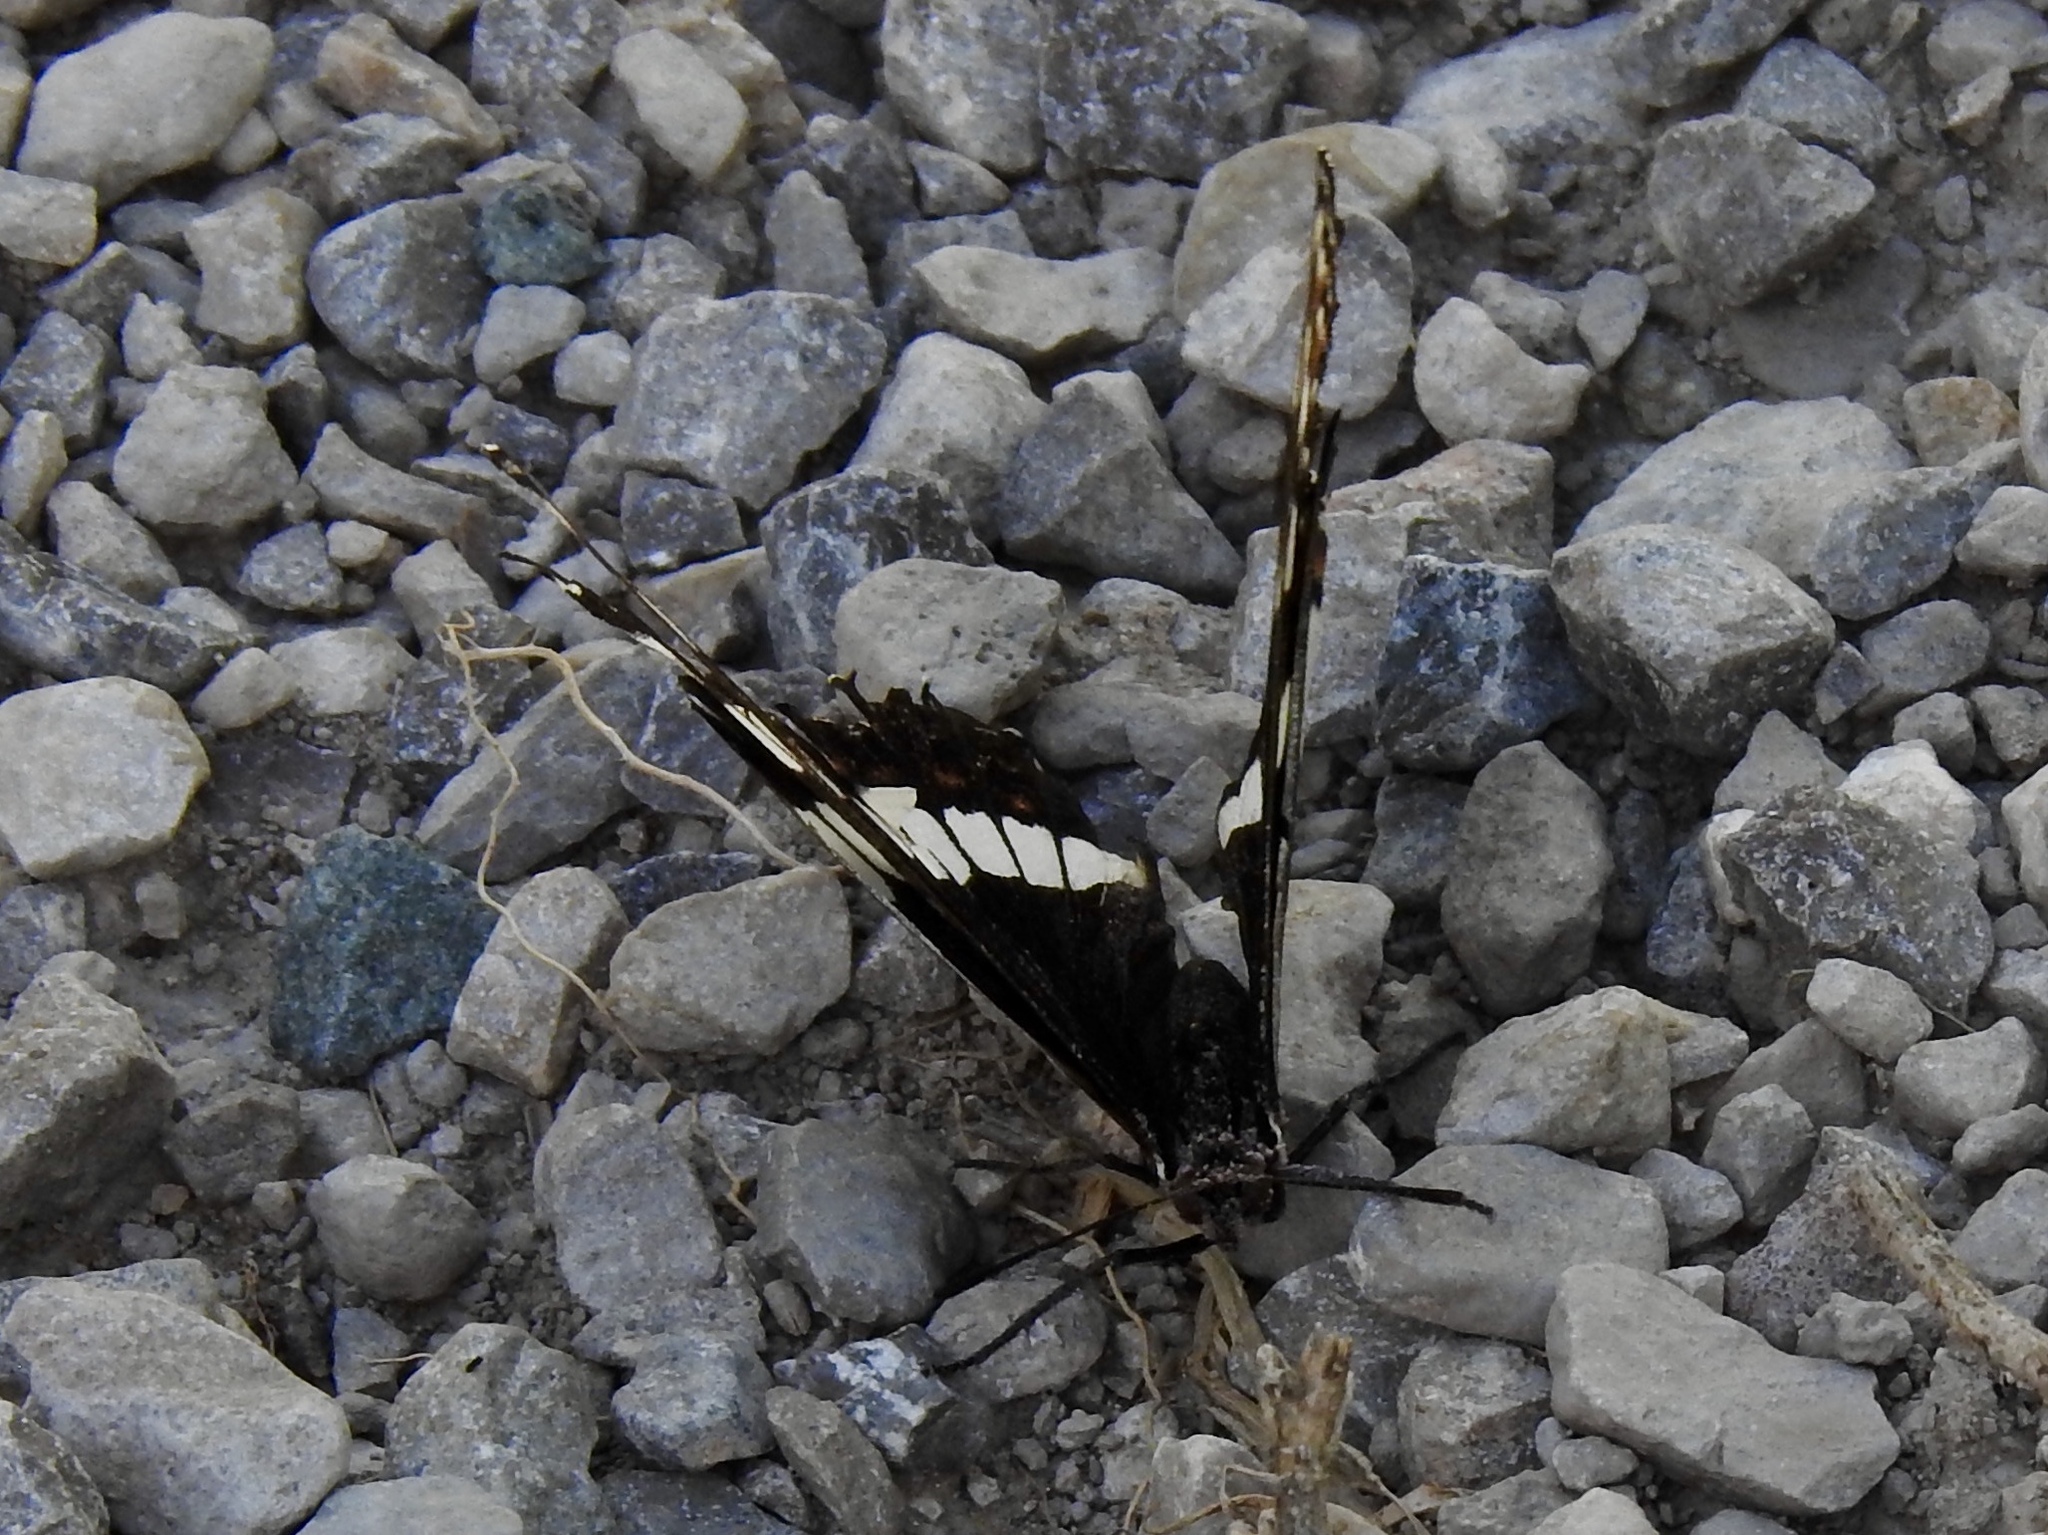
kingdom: Animalia
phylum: Arthropoda
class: Insecta
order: Lepidoptera
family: Nymphalidae
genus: Limenitis
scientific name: Limenitis weidemeyerii
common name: Weidemeyer's admiral
